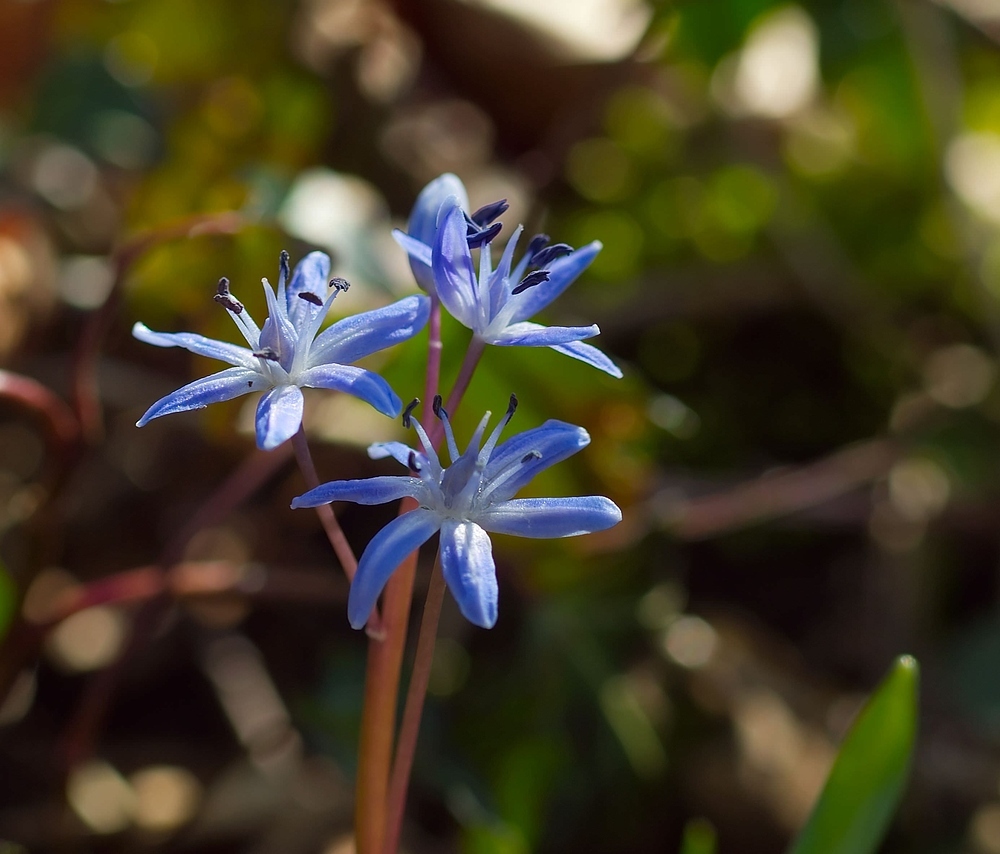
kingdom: Plantae
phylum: Tracheophyta
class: Liliopsida
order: Asparagales
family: Asparagaceae
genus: Scilla
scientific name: Scilla bifolia
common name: Alpine squill
